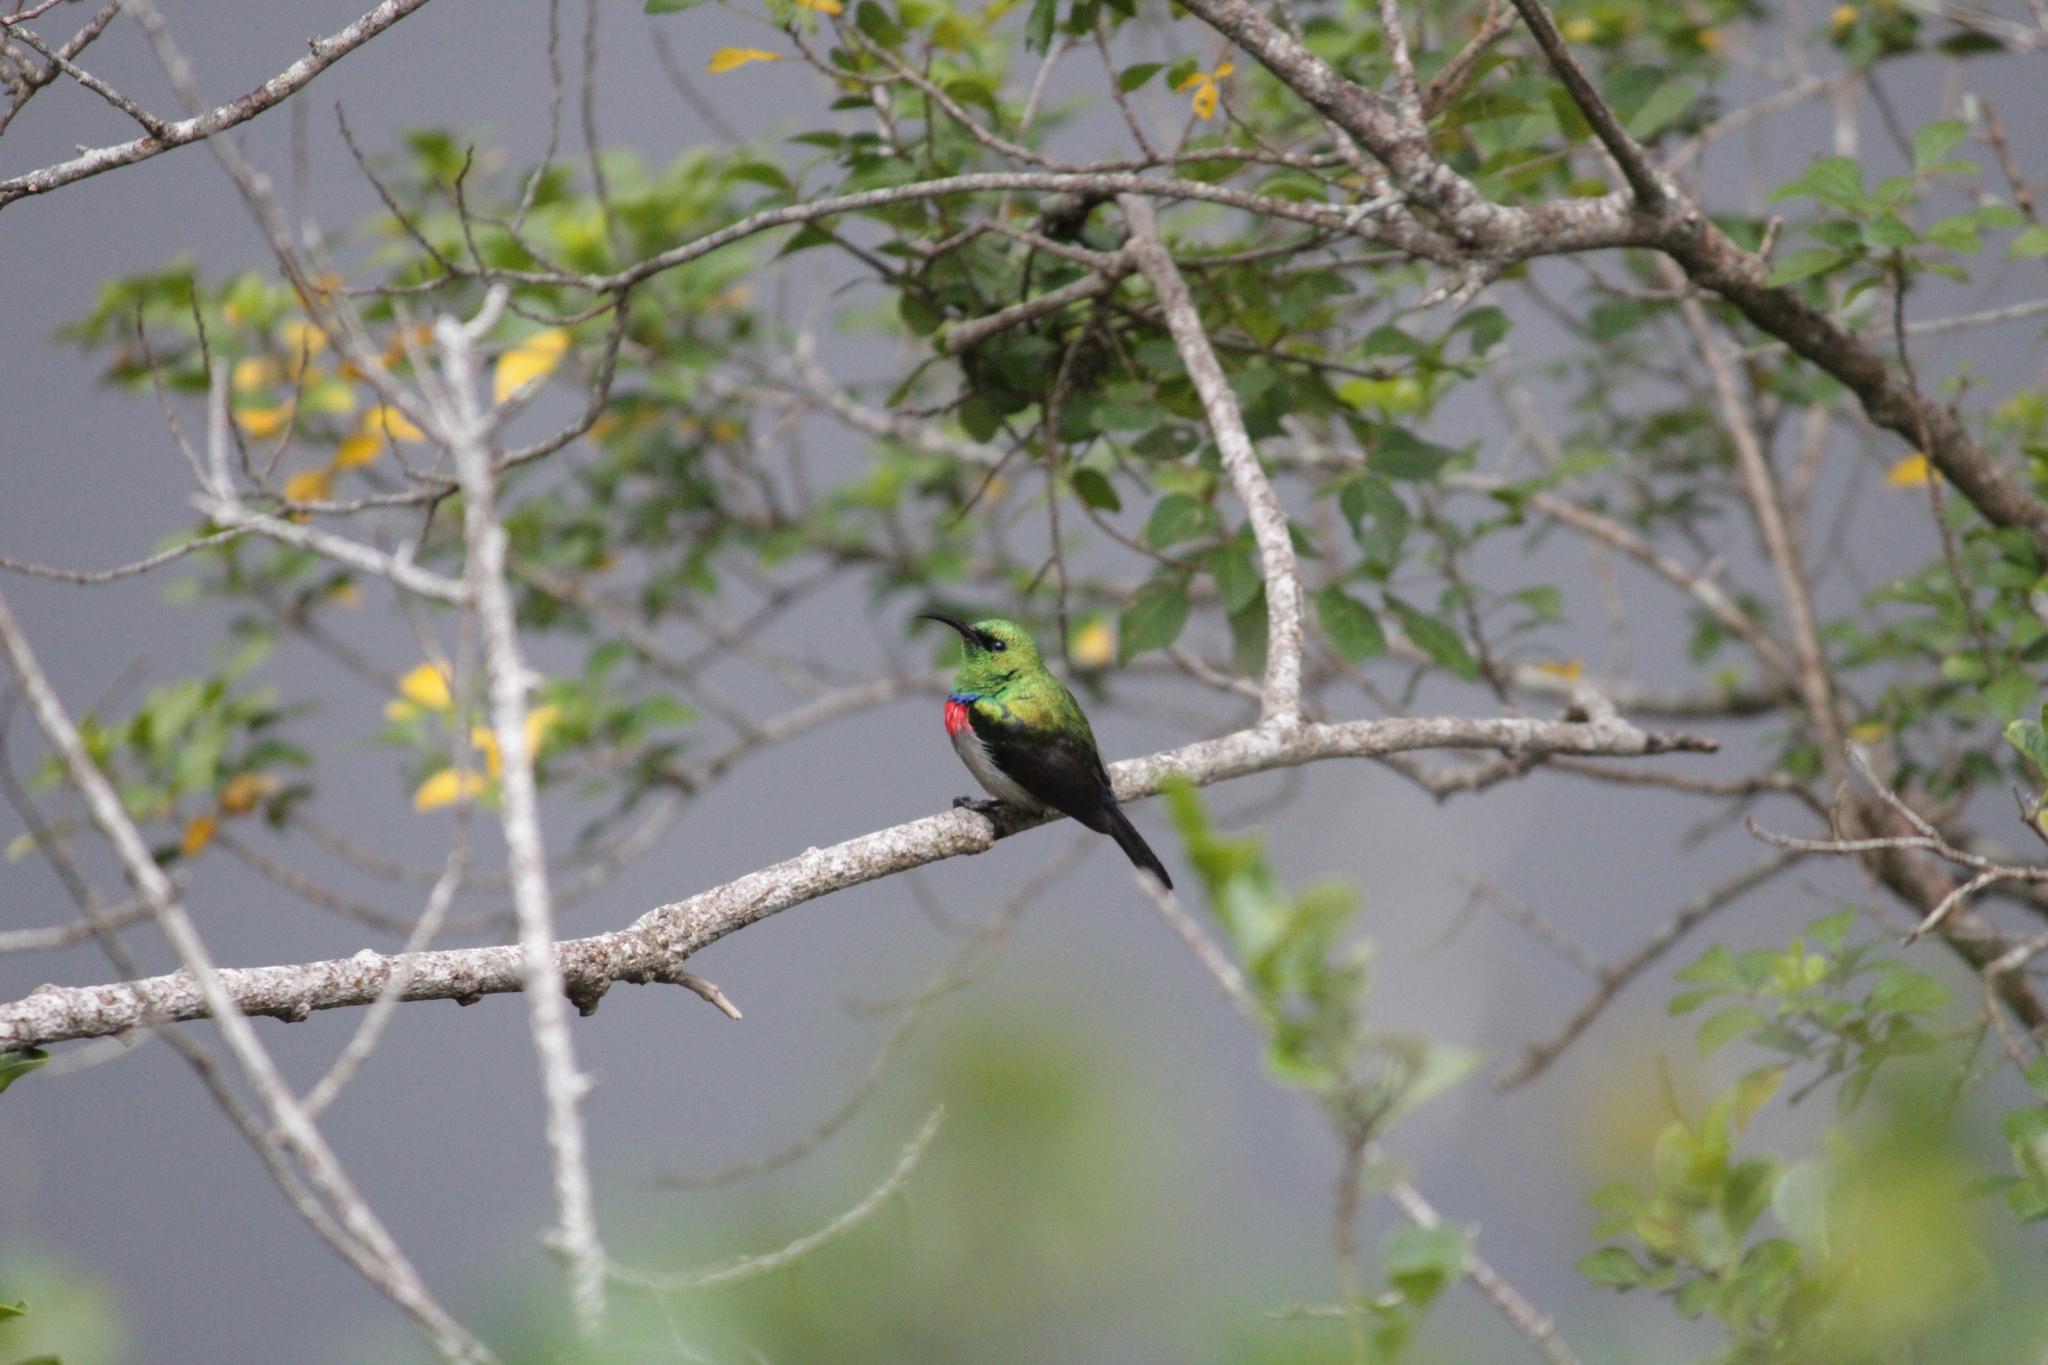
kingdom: Animalia
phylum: Chordata
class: Aves
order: Passeriformes
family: Nectariniidae
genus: Cinnyris
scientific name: Cinnyris chalybeus
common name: Southern double-collared sunbird
